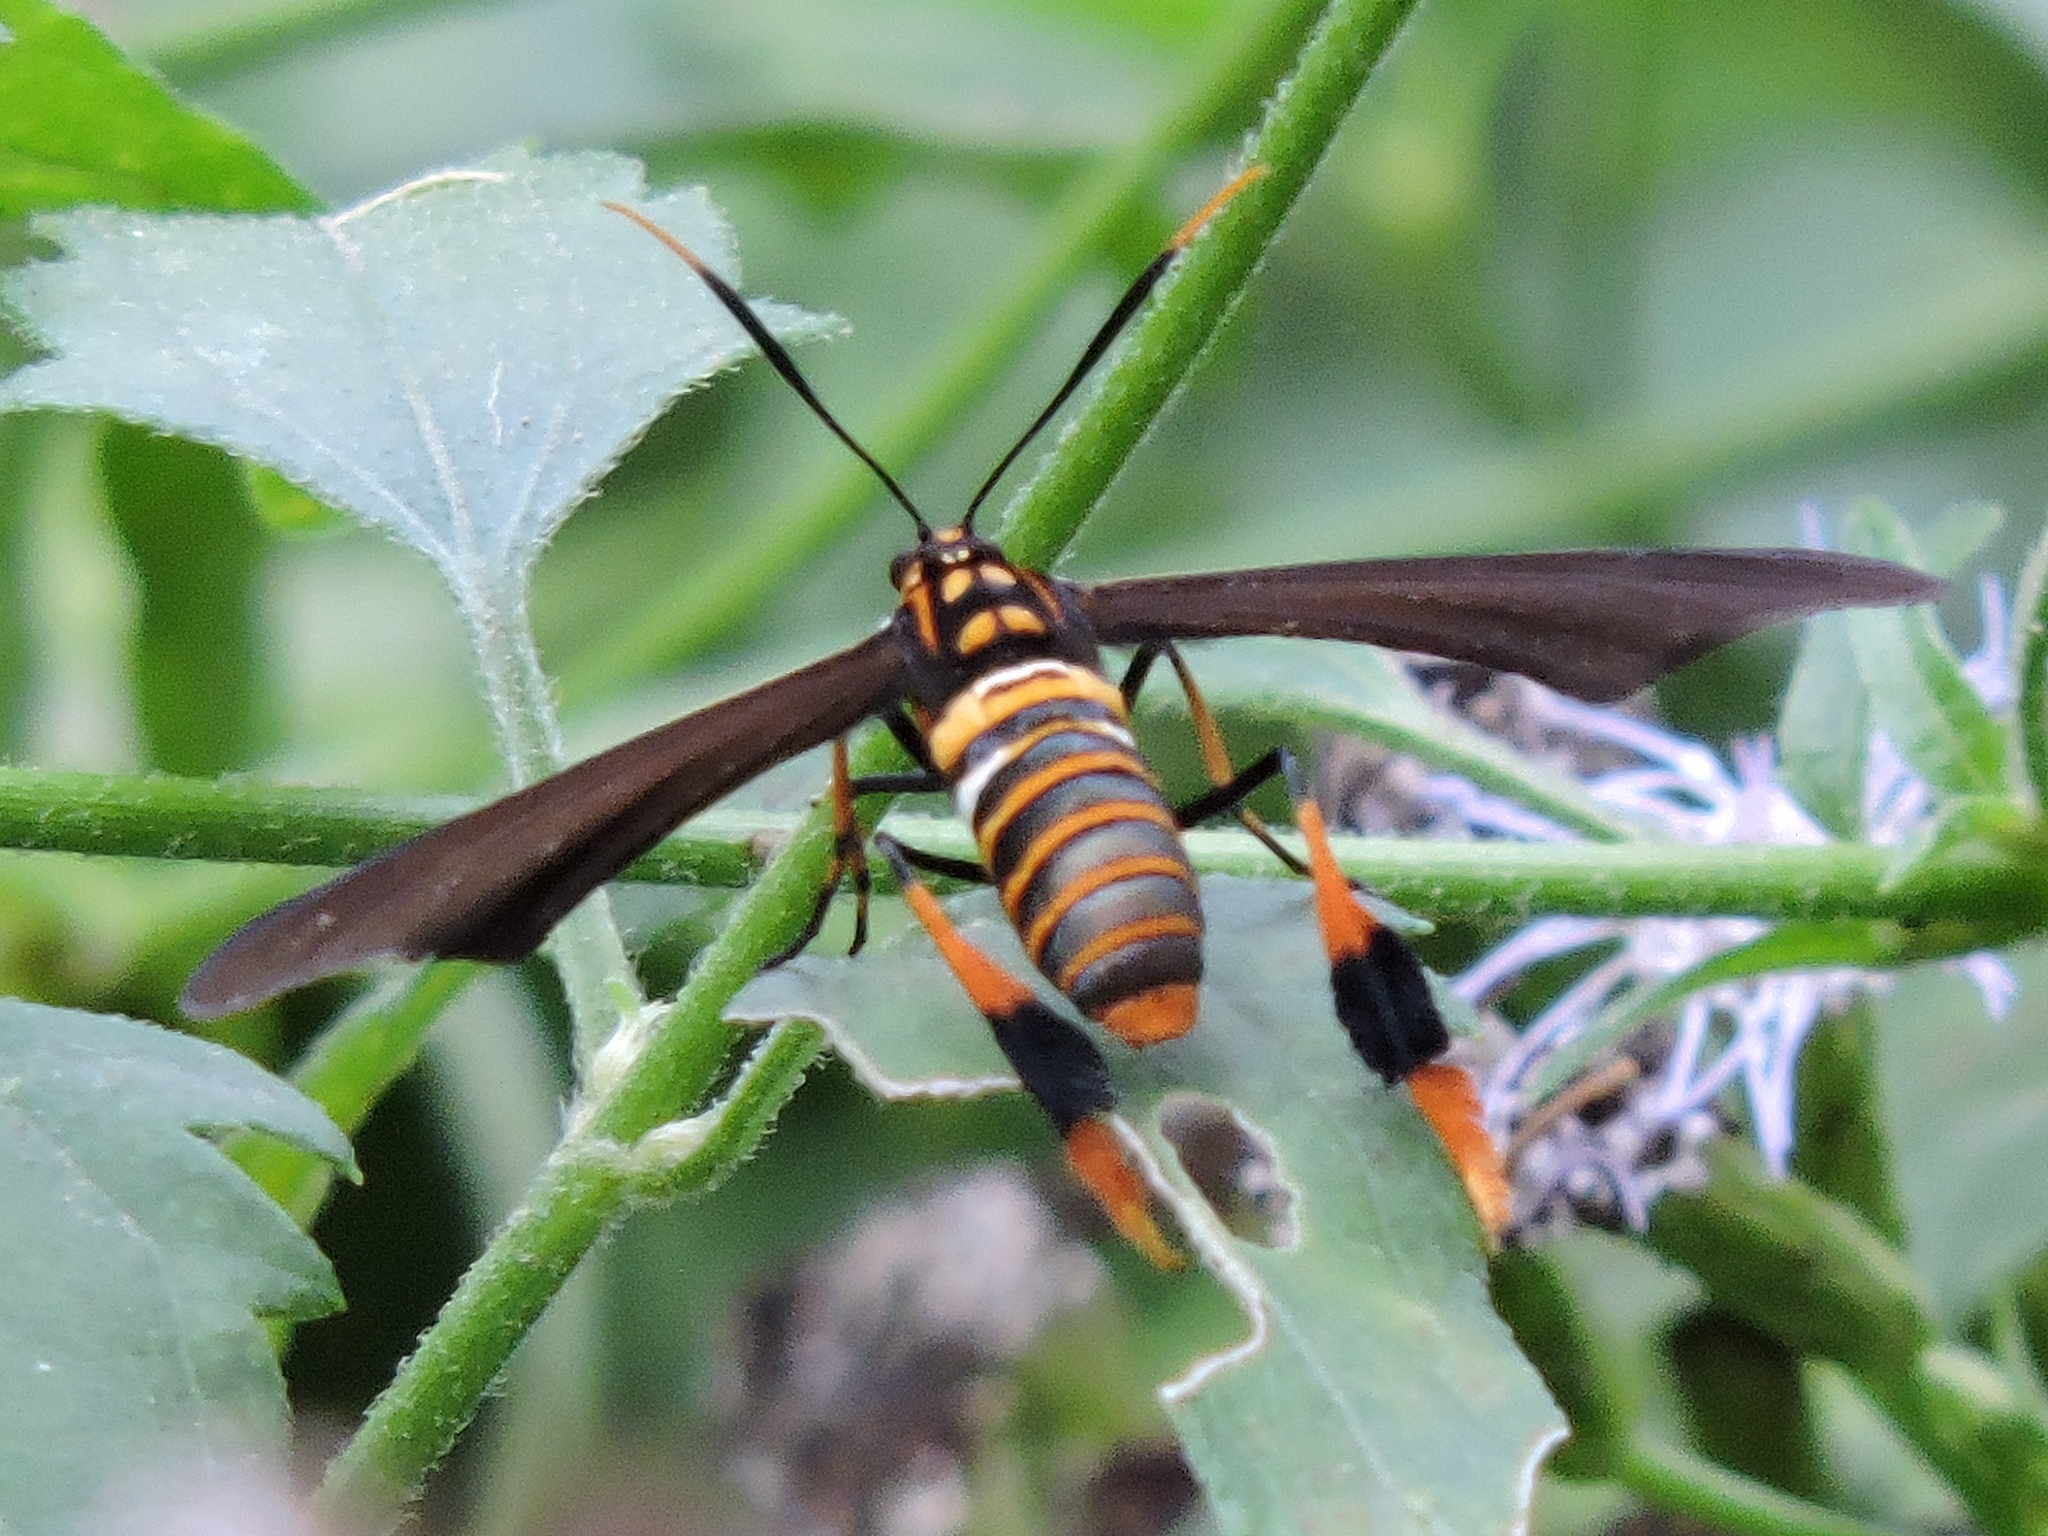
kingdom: Animalia
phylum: Arthropoda
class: Insecta
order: Lepidoptera
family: Erebidae
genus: Horama
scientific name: Horama panthalon
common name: Texas wasp moth
